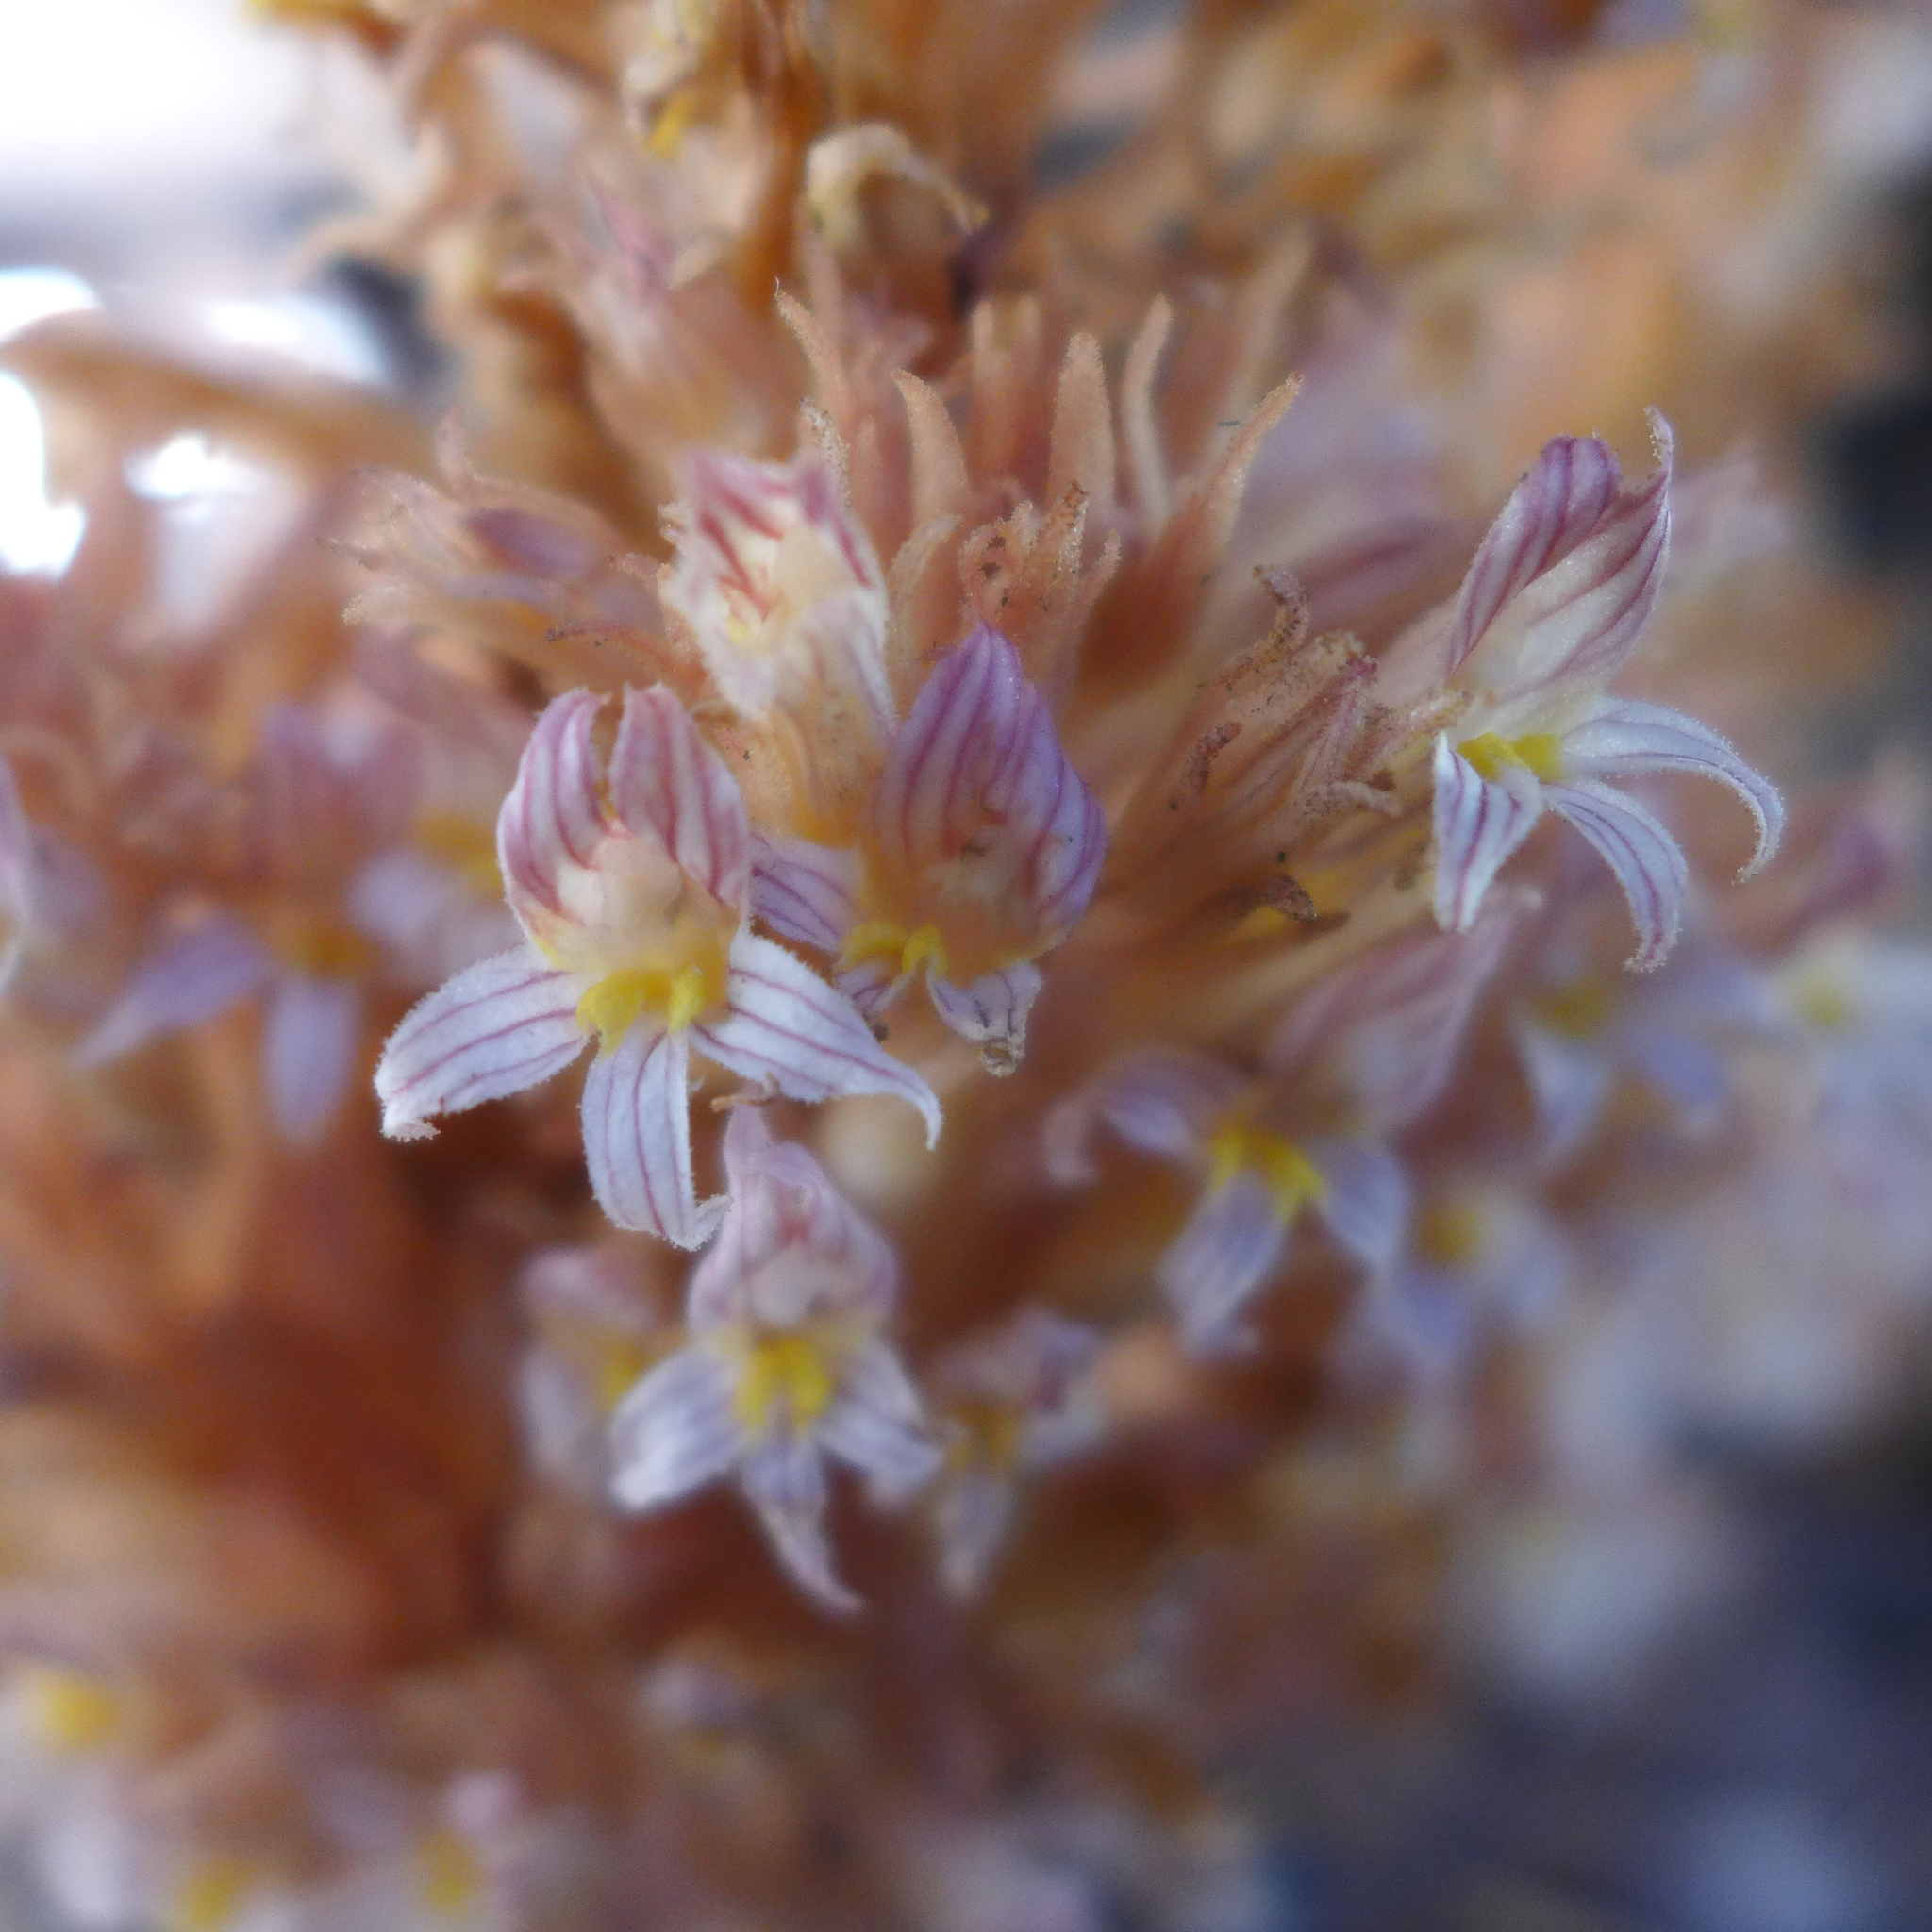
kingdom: Plantae
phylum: Tracheophyta
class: Magnoliopsida
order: Lamiales
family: Orobanchaceae
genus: Aphyllon
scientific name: Aphyllon vallicolum
